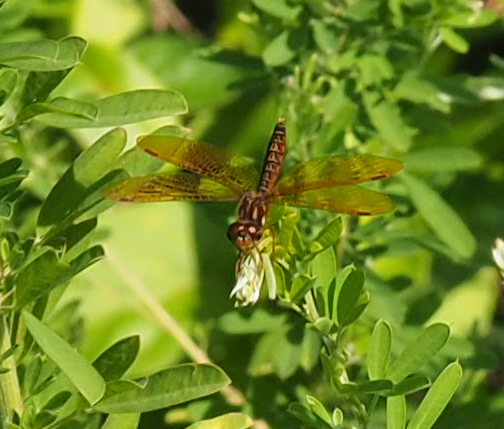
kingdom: Animalia
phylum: Arthropoda
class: Insecta
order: Odonata
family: Libellulidae
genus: Perithemis
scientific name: Perithemis tenera
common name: Eastern amberwing
